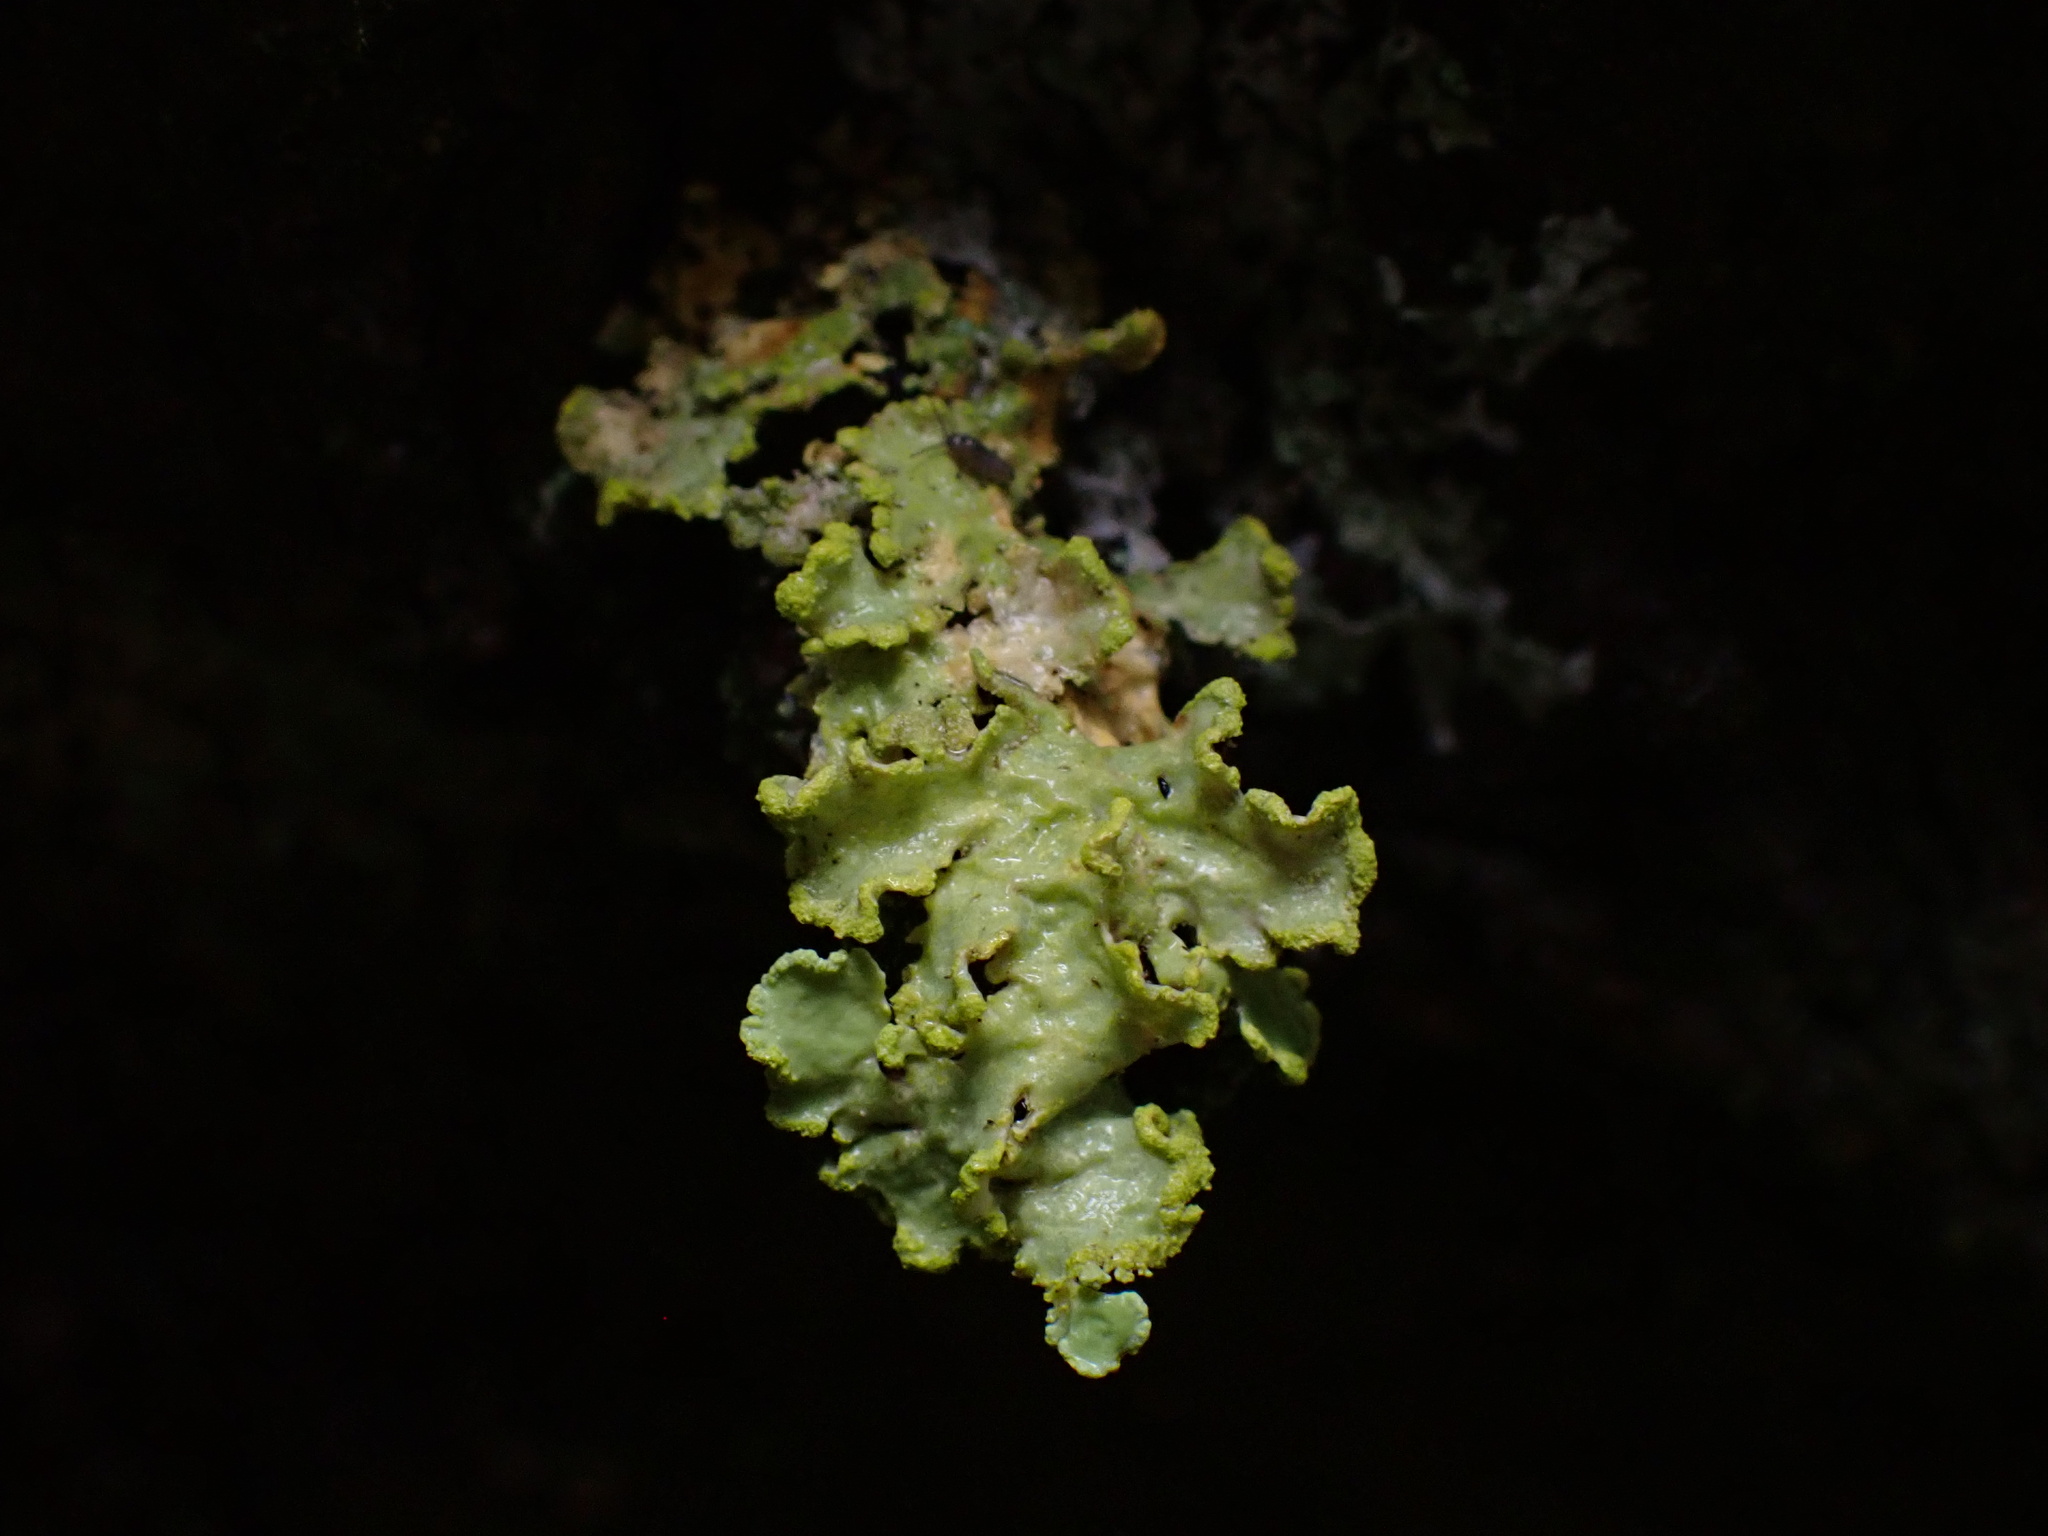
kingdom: Fungi
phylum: Ascomycota
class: Lecanoromycetes
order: Lecanorales
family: Parmeliaceae
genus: Vulpicida
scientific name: Vulpicida pinastri
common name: Powdered sunshine lichen
